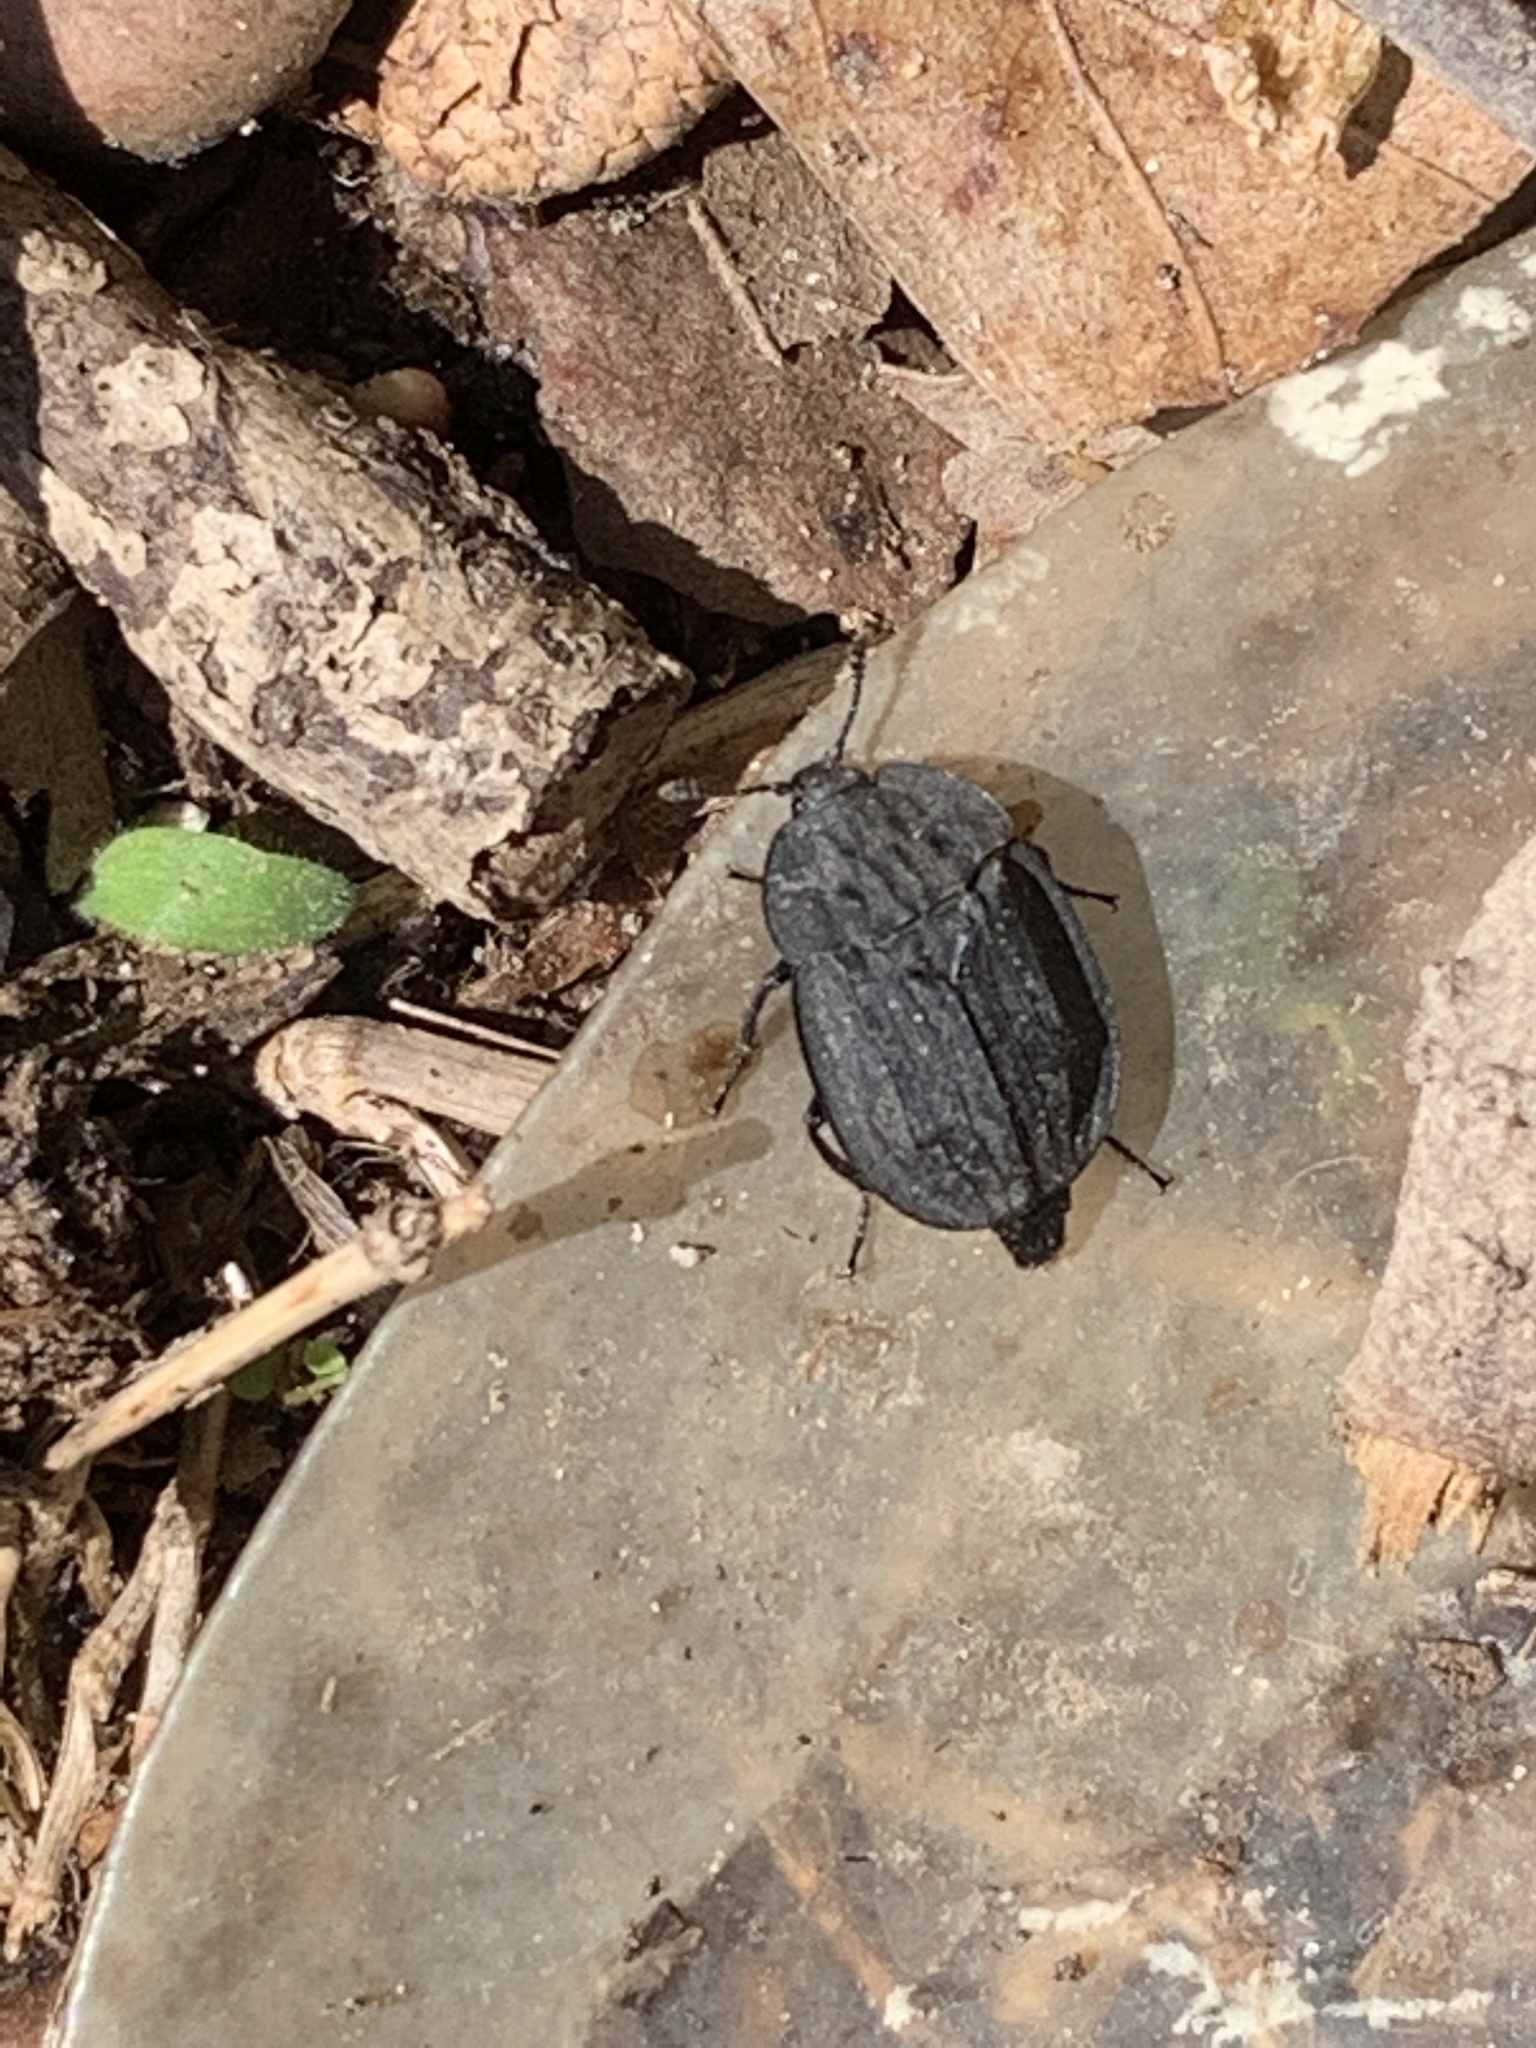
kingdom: Animalia
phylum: Arthropoda
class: Insecta
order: Coleoptera
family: Staphylinidae
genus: Oiceoptoma
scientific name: Oiceoptoma inaequale
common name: Ridged carrion beetle
